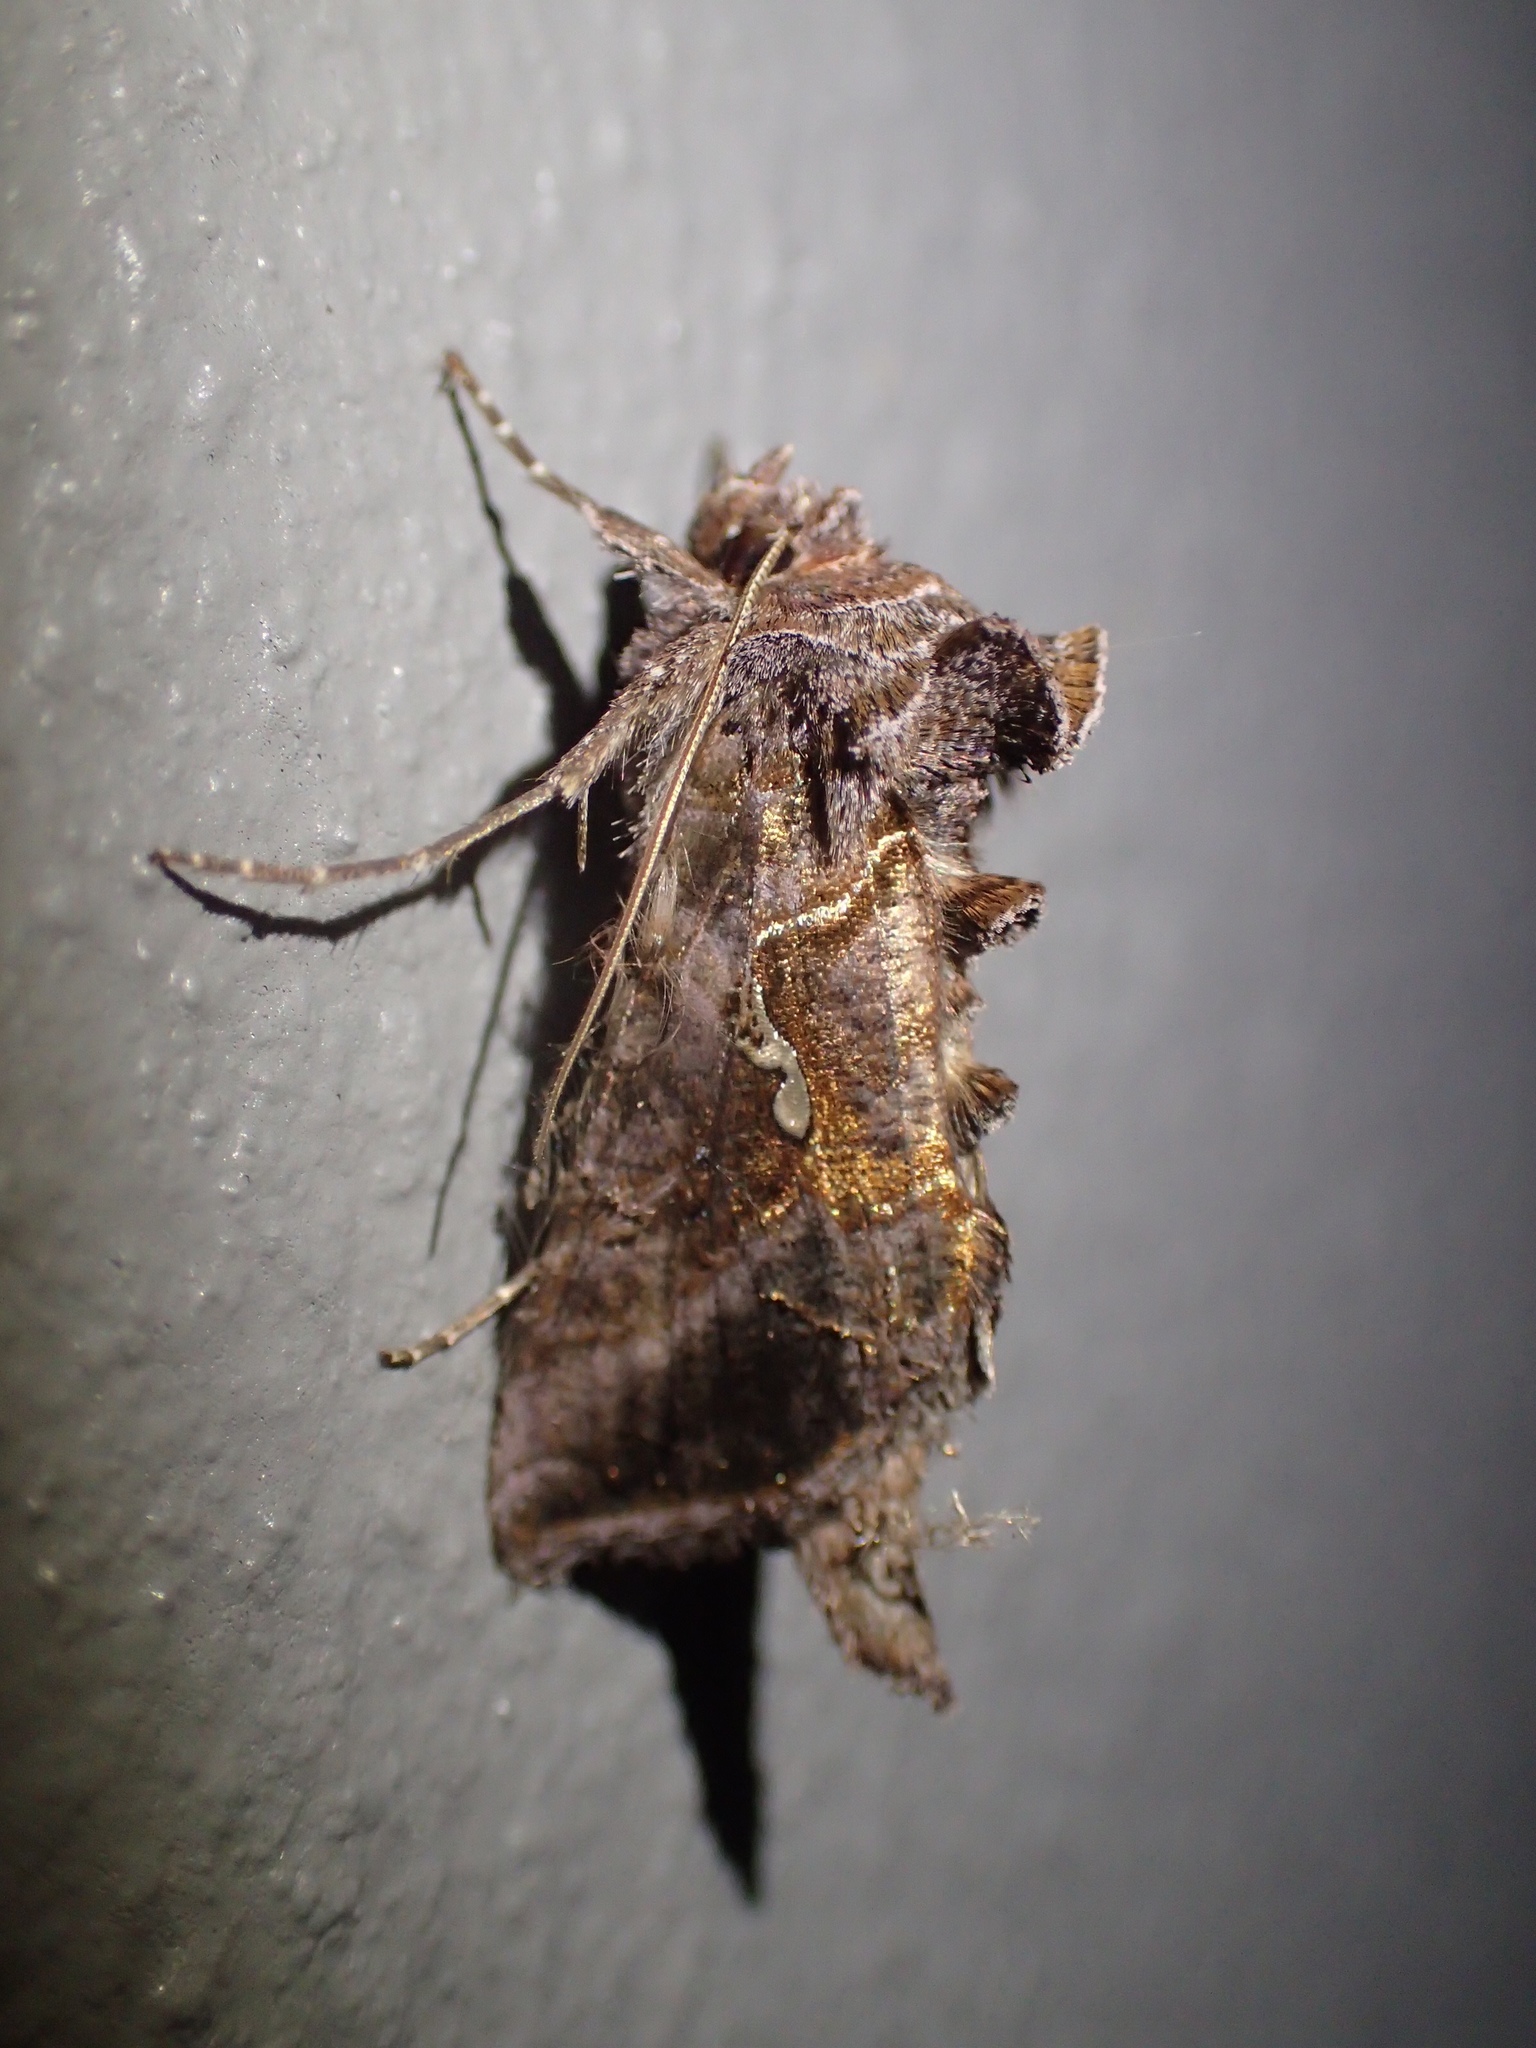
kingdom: Animalia
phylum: Arthropoda
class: Insecta
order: Lepidoptera
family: Noctuidae
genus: Autographa
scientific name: Autographa precationis
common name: Common looper moth
